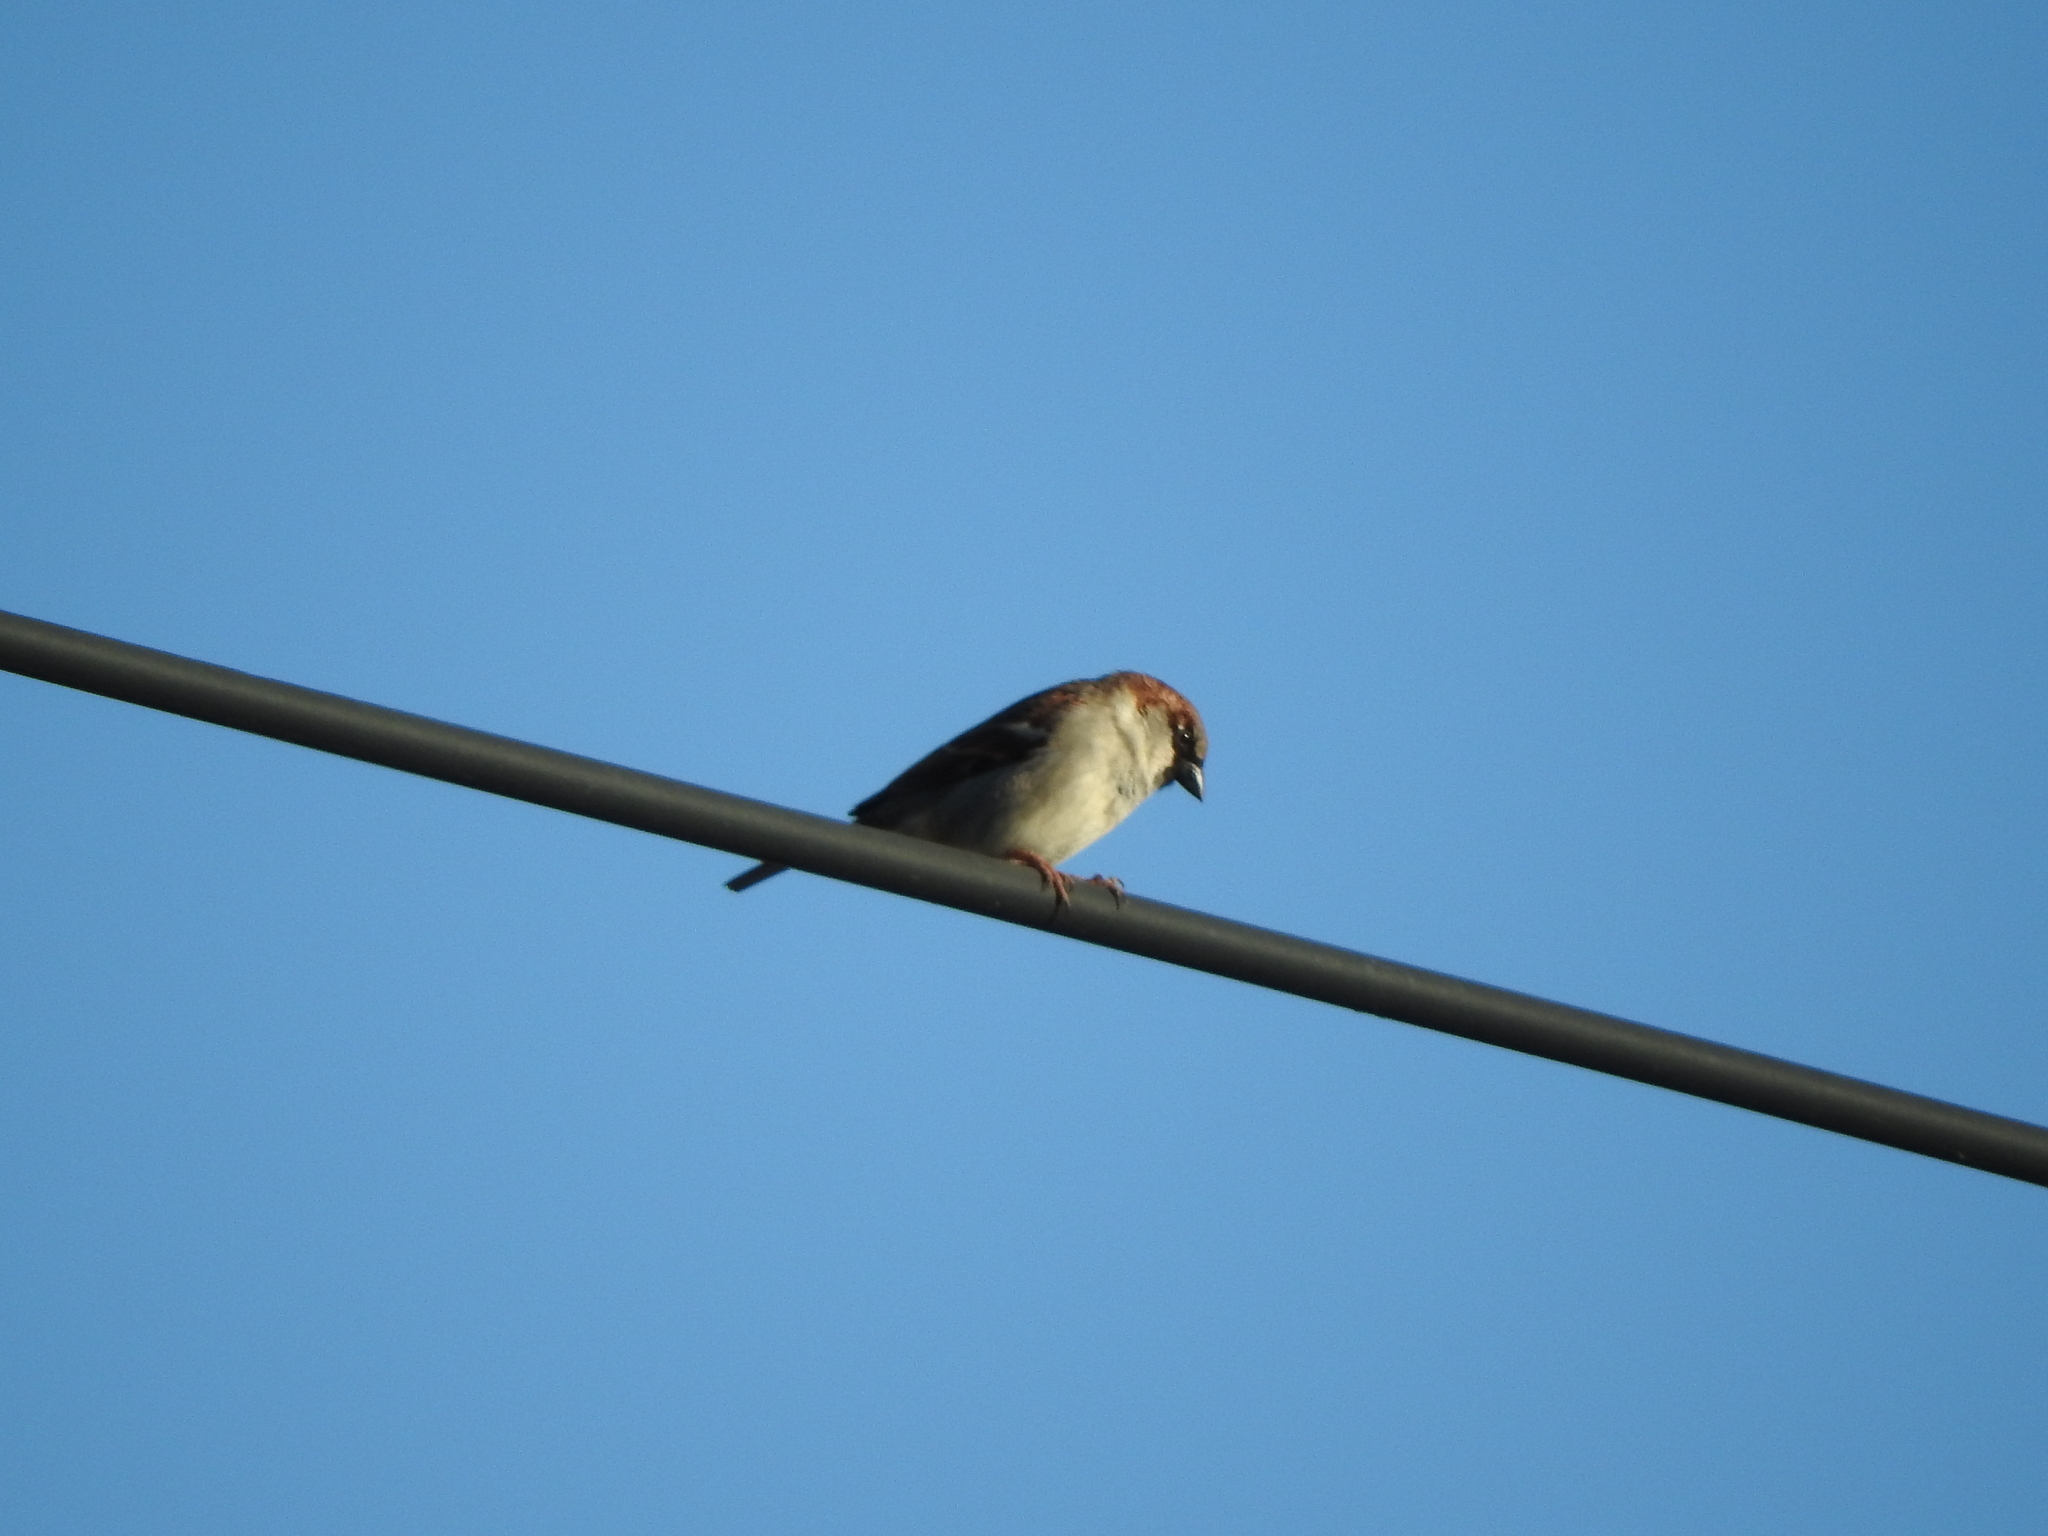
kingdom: Animalia
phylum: Chordata
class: Aves
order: Passeriformes
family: Passeridae
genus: Passer
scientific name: Passer domesticus
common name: House sparrow
